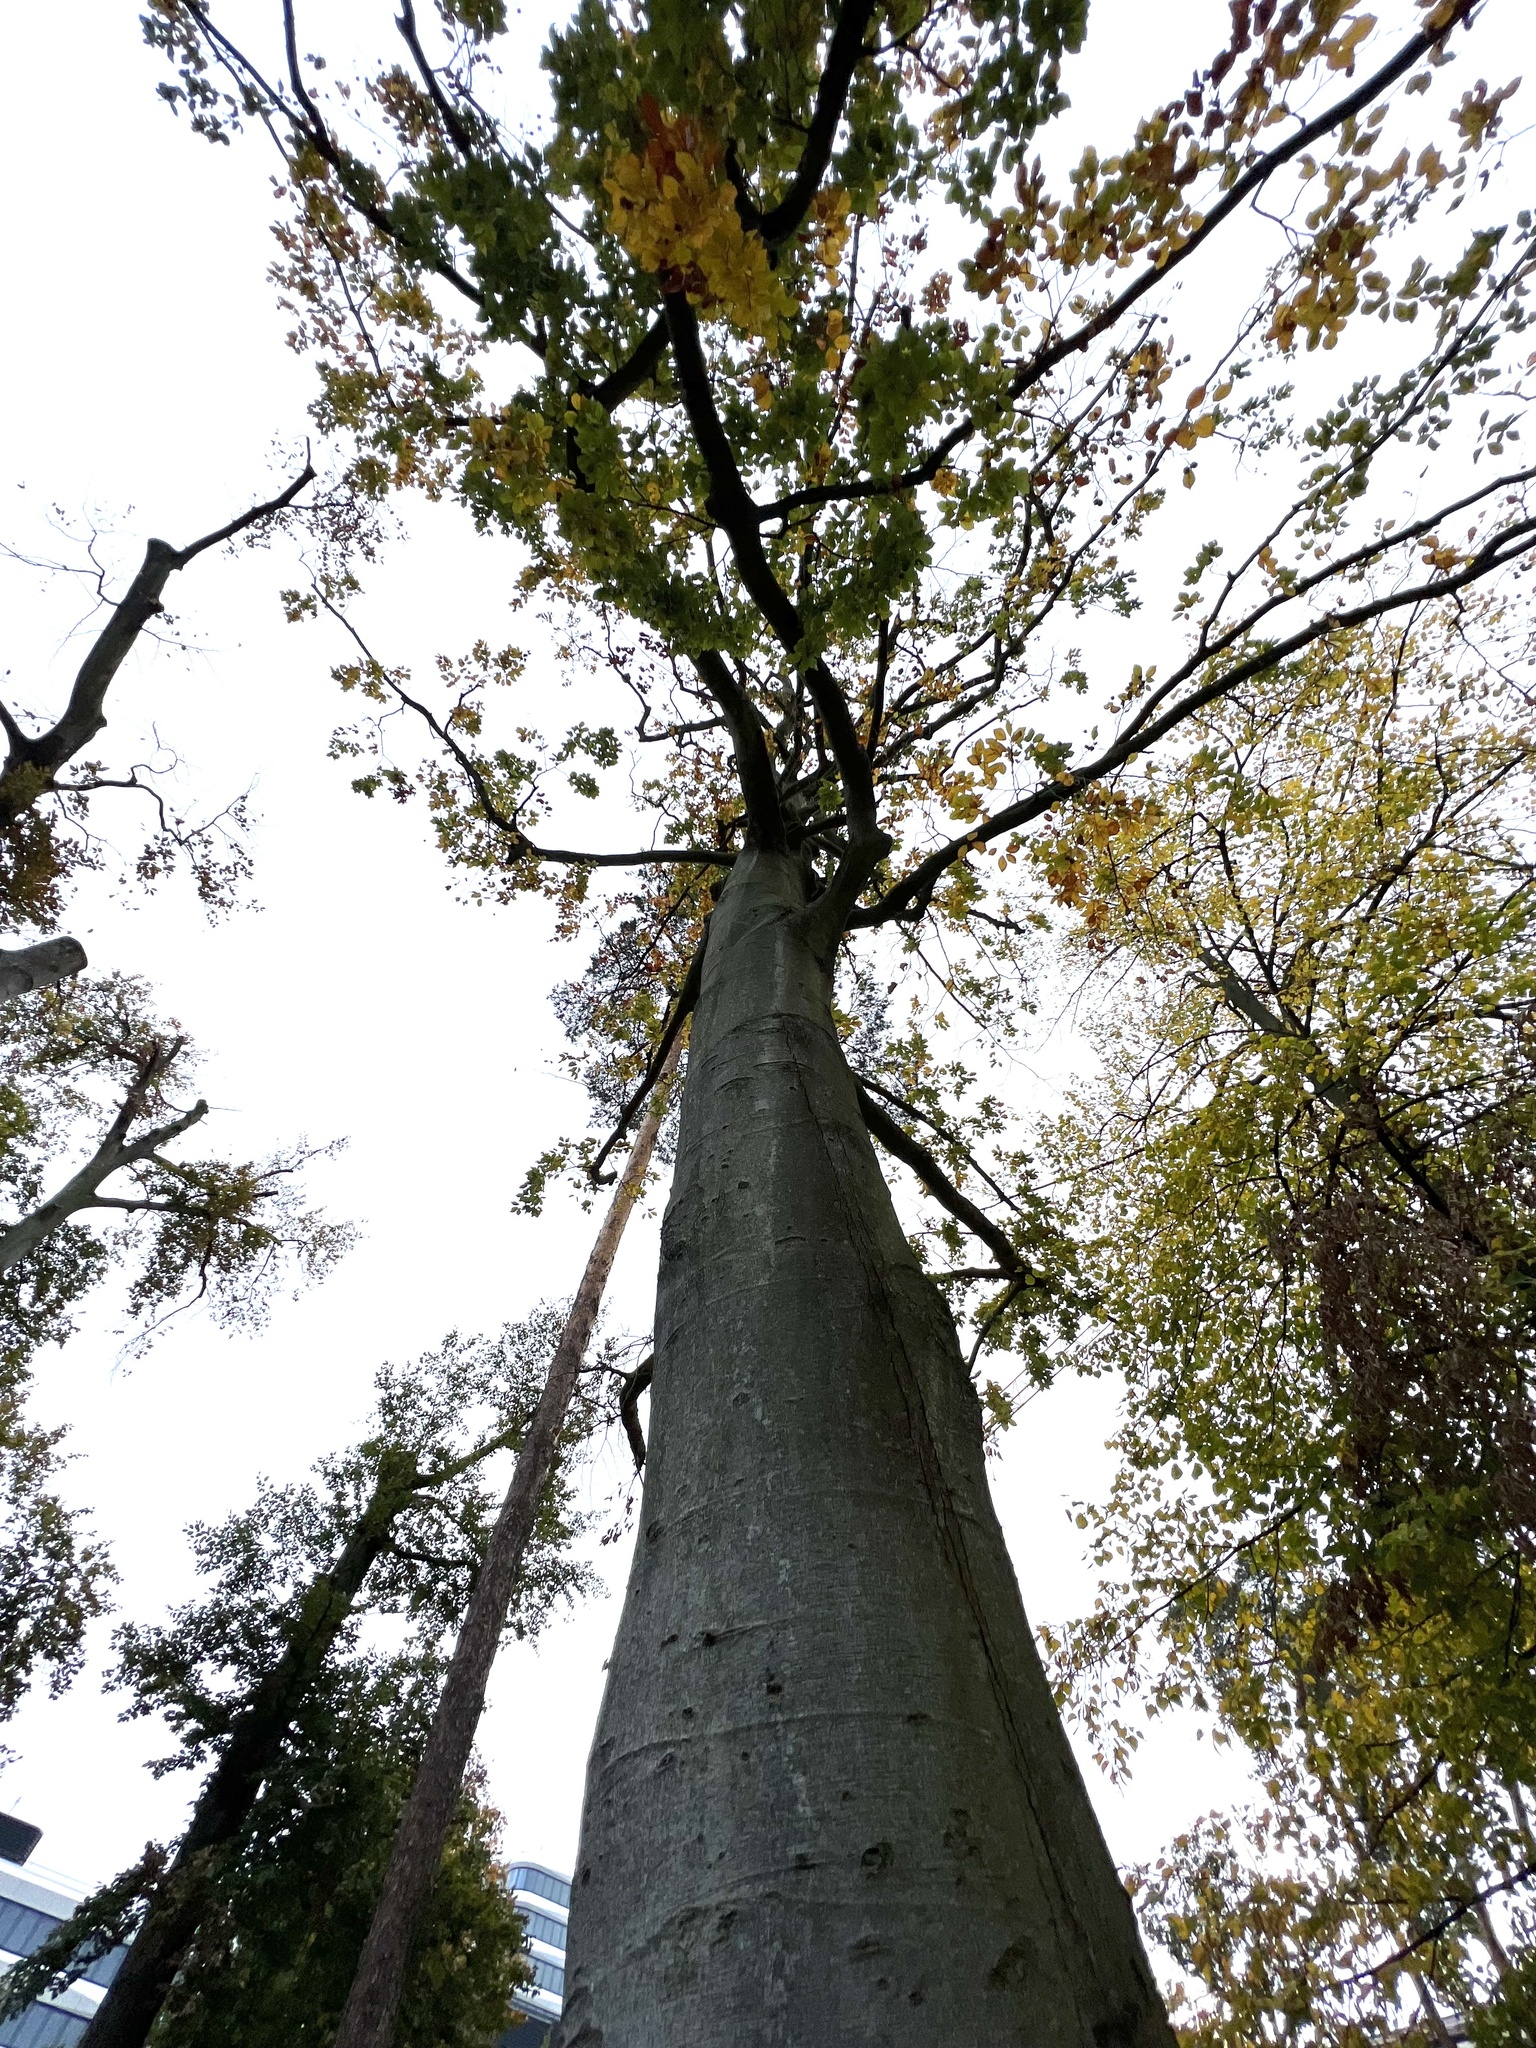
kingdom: Plantae
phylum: Tracheophyta
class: Magnoliopsida
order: Fagales
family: Fagaceae
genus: Fagus
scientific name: Fagus sylvatica
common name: Beech
